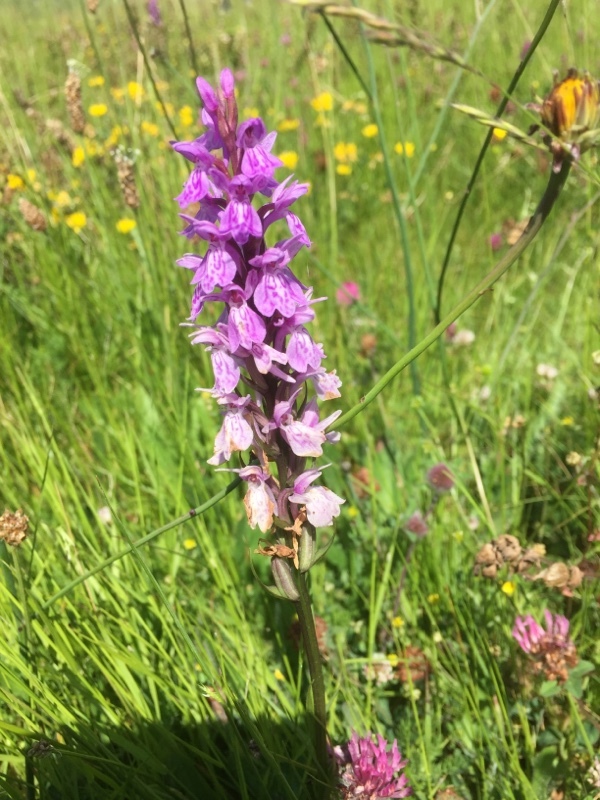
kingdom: Plantae
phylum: Tracheophyta
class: Liliopsida
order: Asparagales
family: Orchidaceae
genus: Dactylorhiza
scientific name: Dactylorhiza maculata
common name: Heath spotted-orchid
